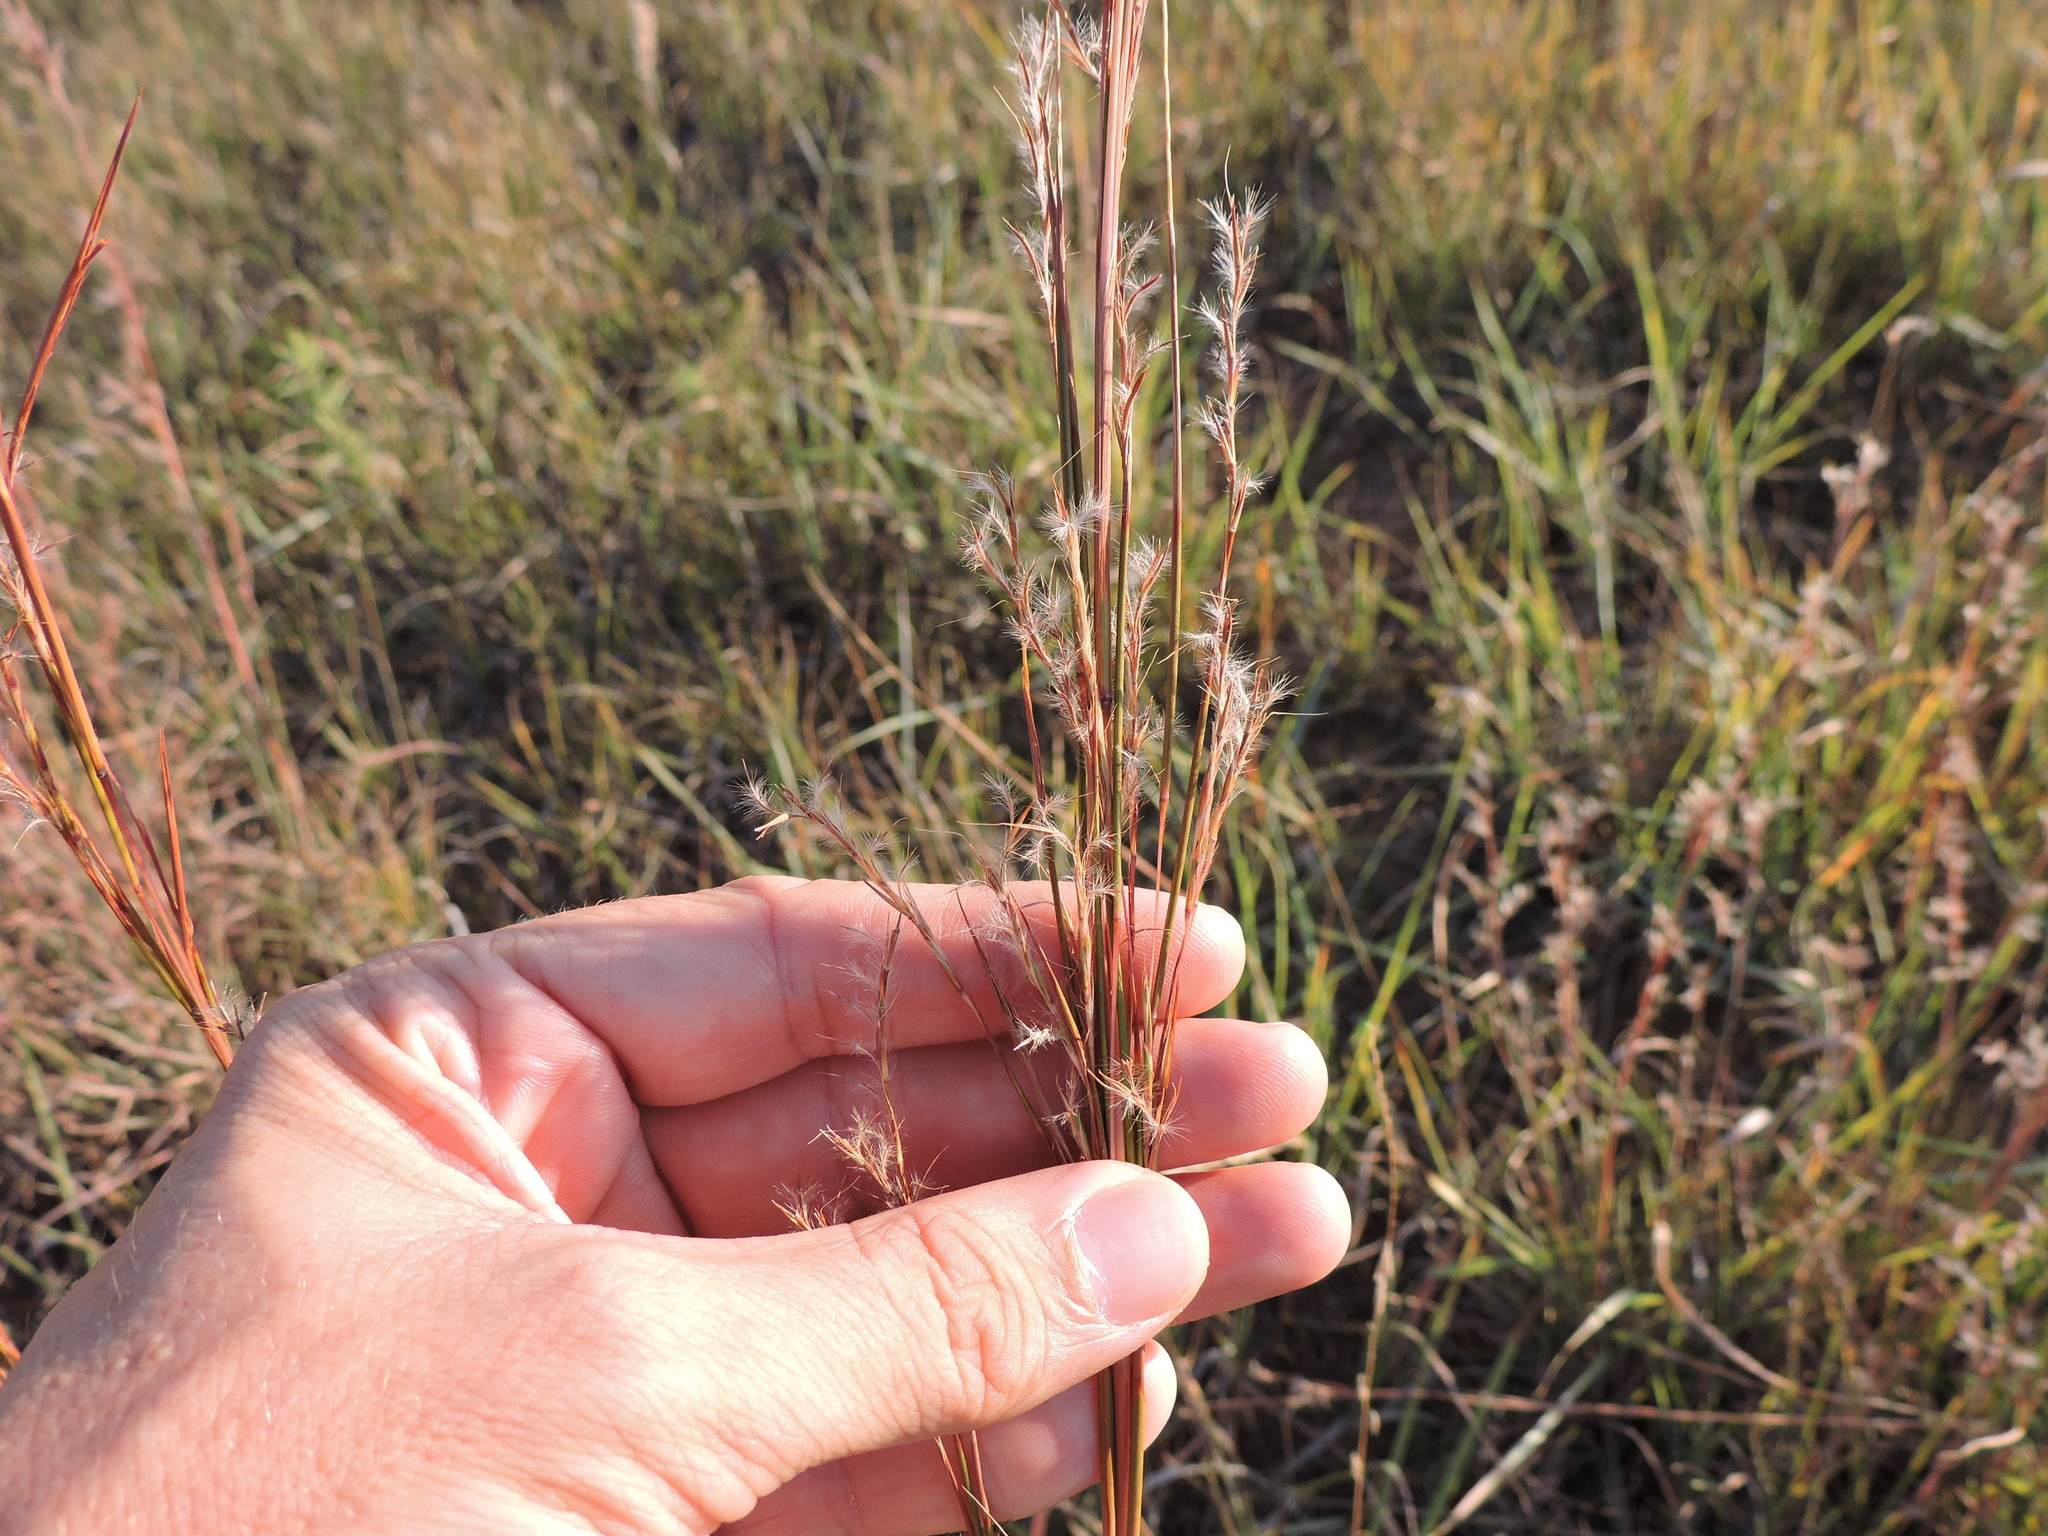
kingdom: Plantae
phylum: Tracheophyta
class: Liliopsida
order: Poales
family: Poaceae
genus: Schizachyrium
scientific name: Schizachyrium scoparium
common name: Little bluestem
